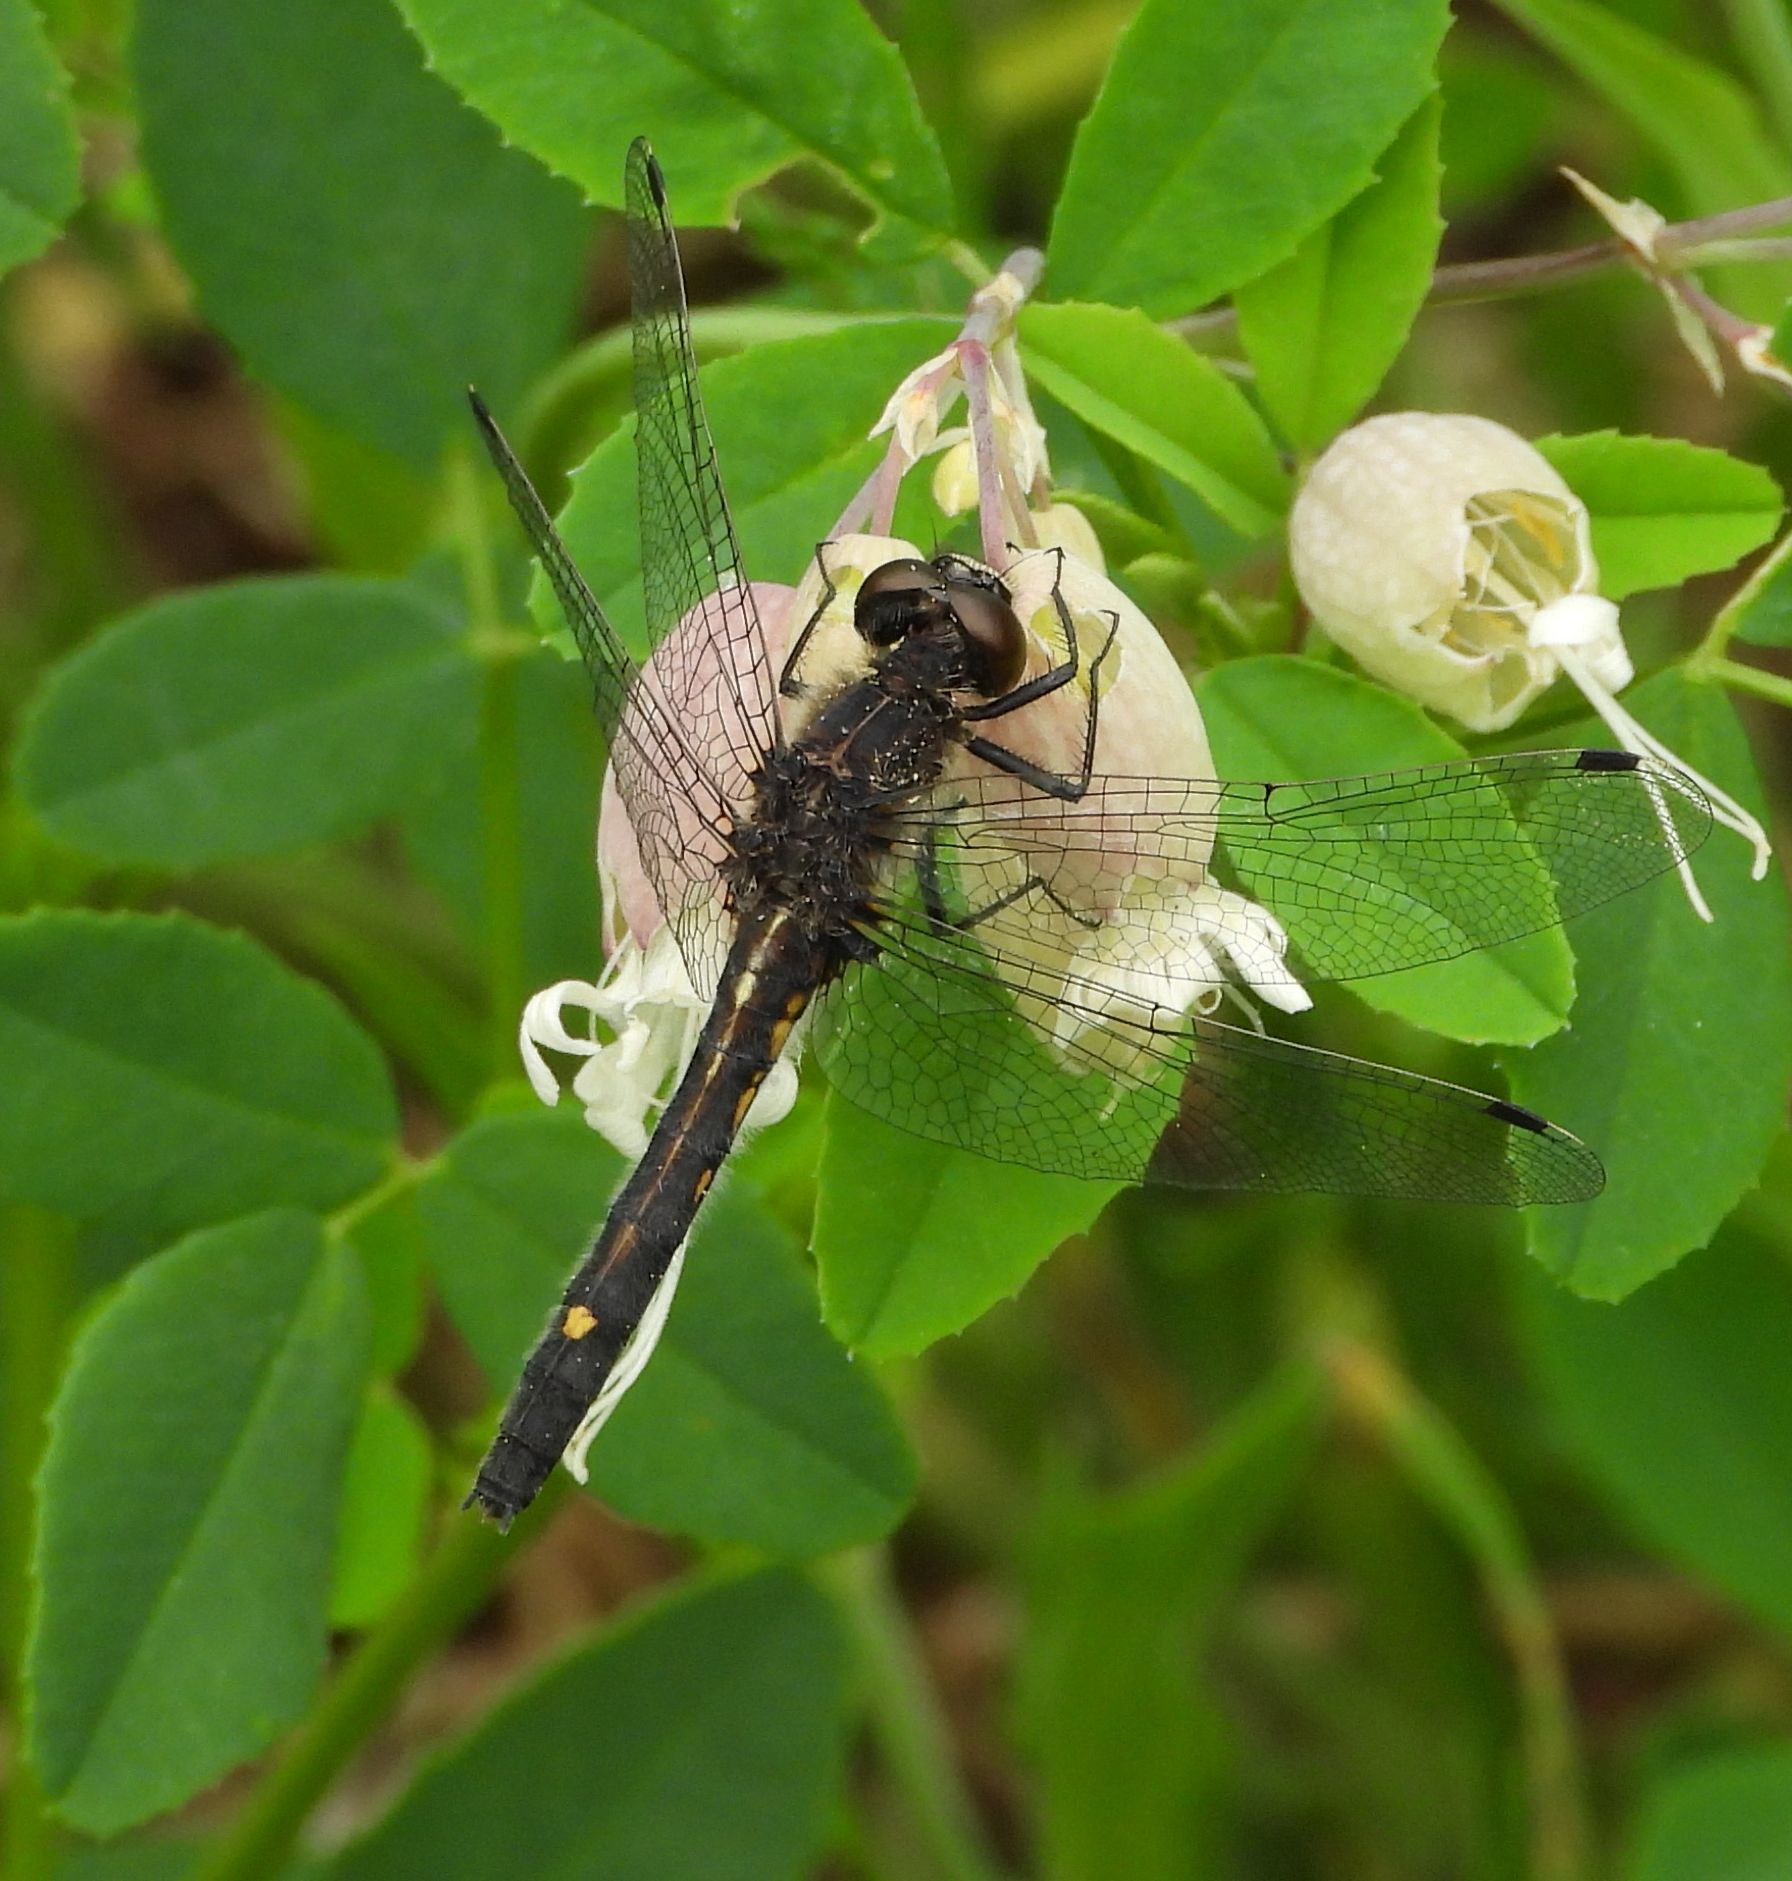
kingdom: Animalia
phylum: Arthropoda
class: Insecta
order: Odonata
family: Libellulidae
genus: Leucorrhinia
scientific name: Leucorrhinia intacta
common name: Dot-tailed whiteface
